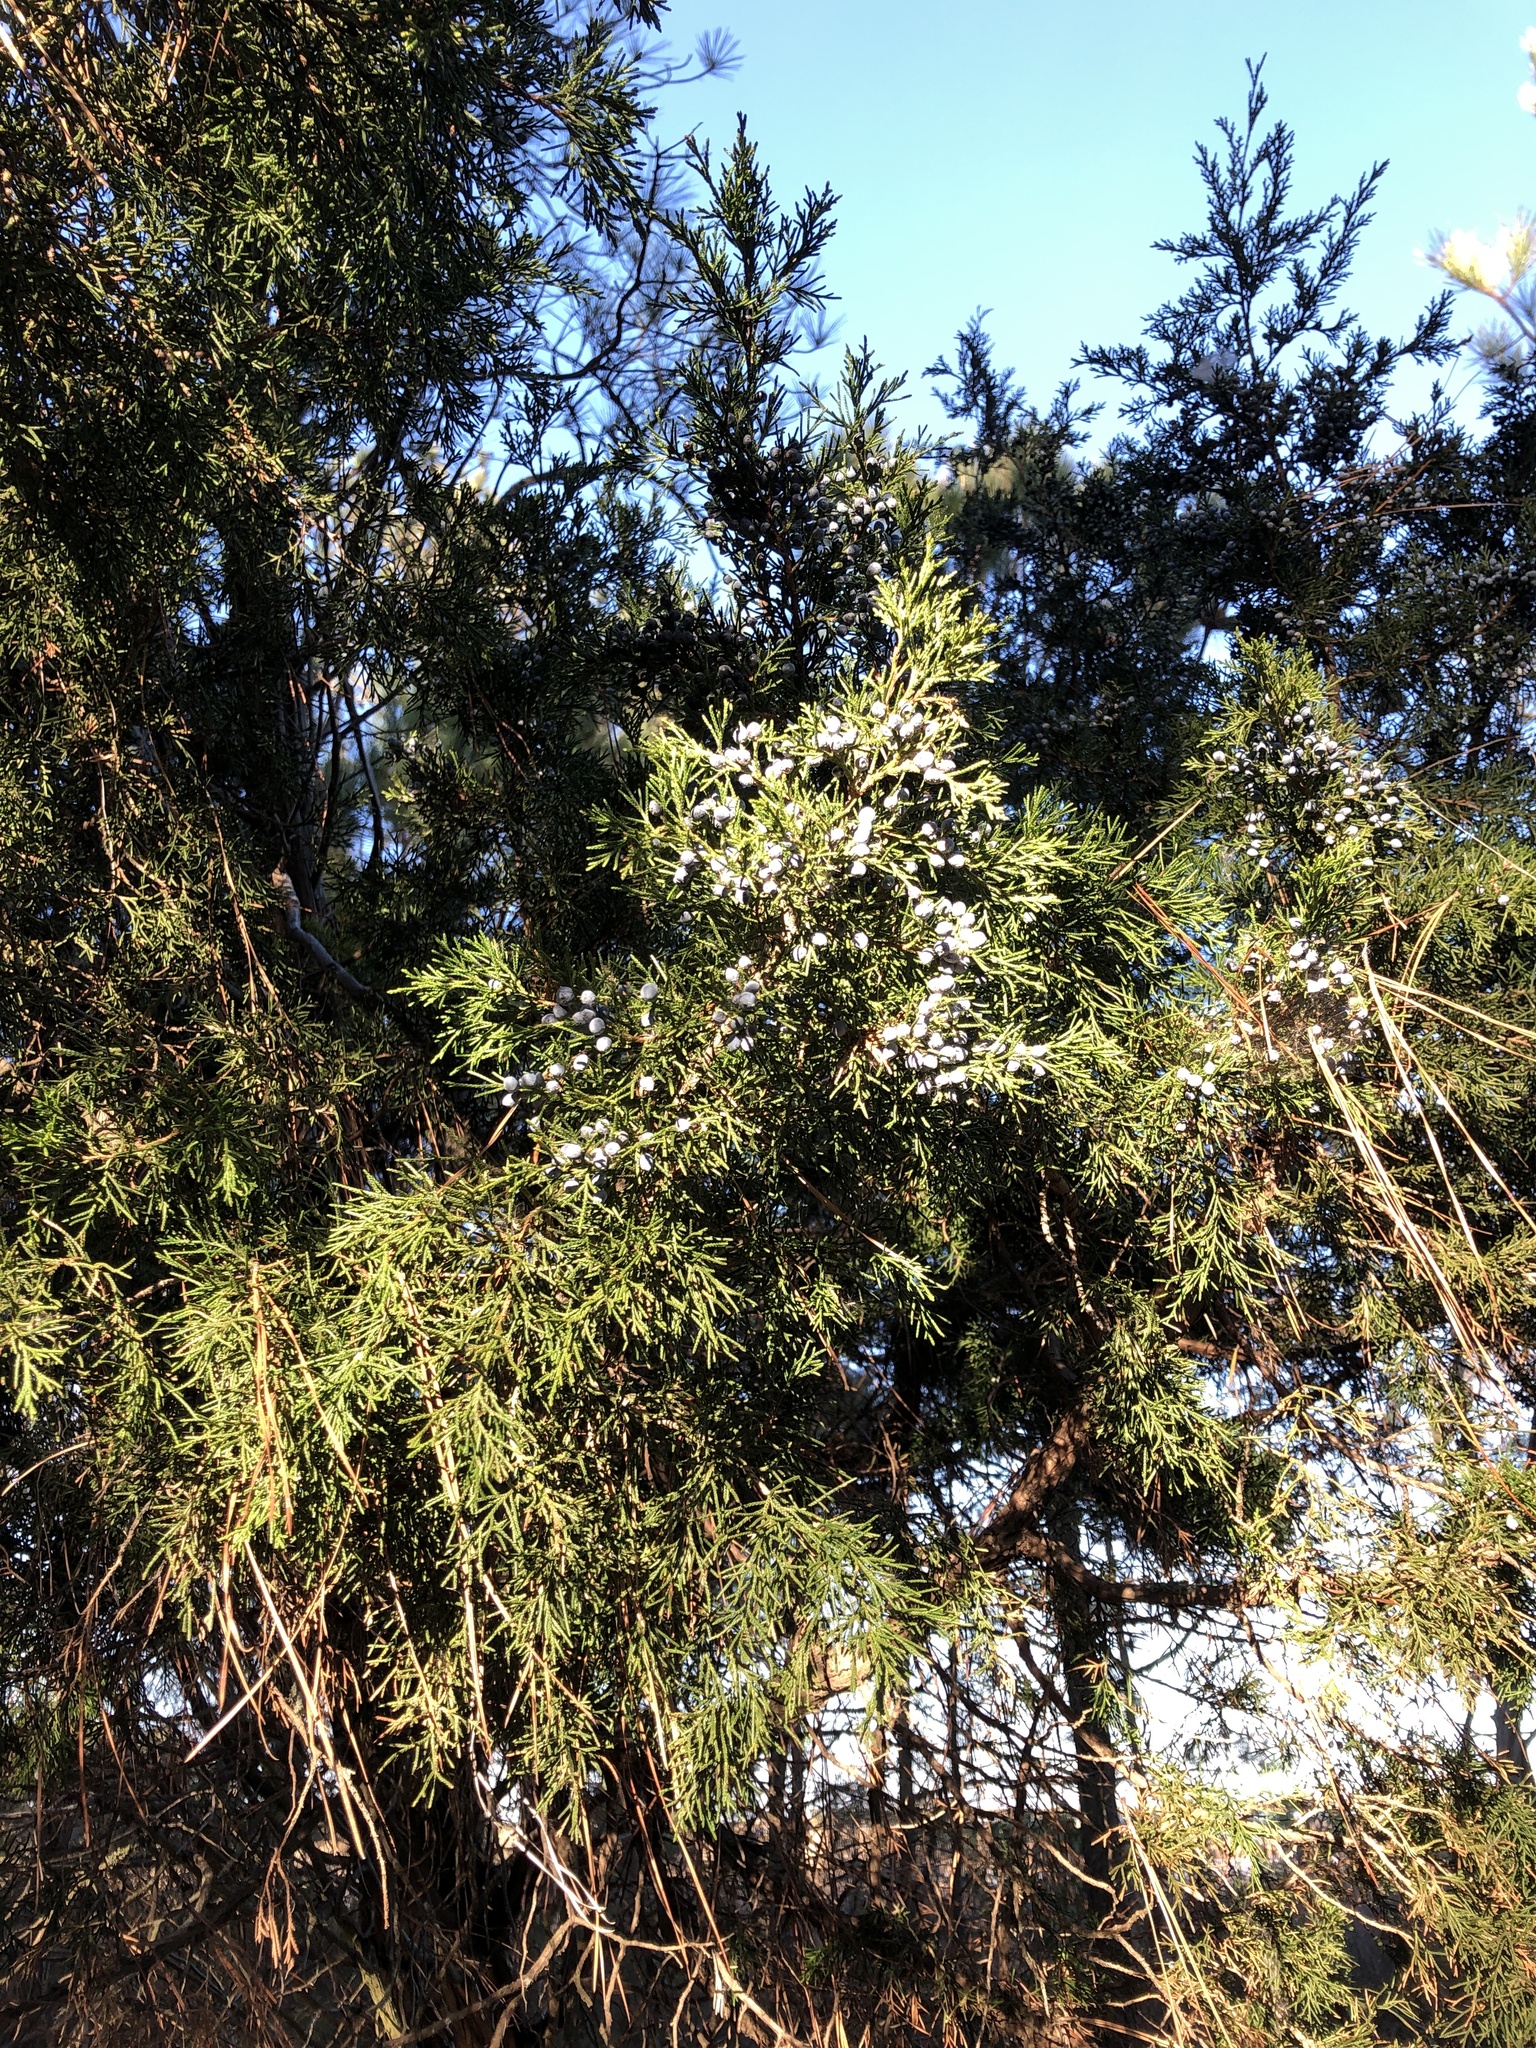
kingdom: Plantae
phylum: Tracheophyta
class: Pinopsida
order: Pinales
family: Cupressaceae
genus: Juniperus
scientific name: Juniperus virginiana
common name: Red juniper
